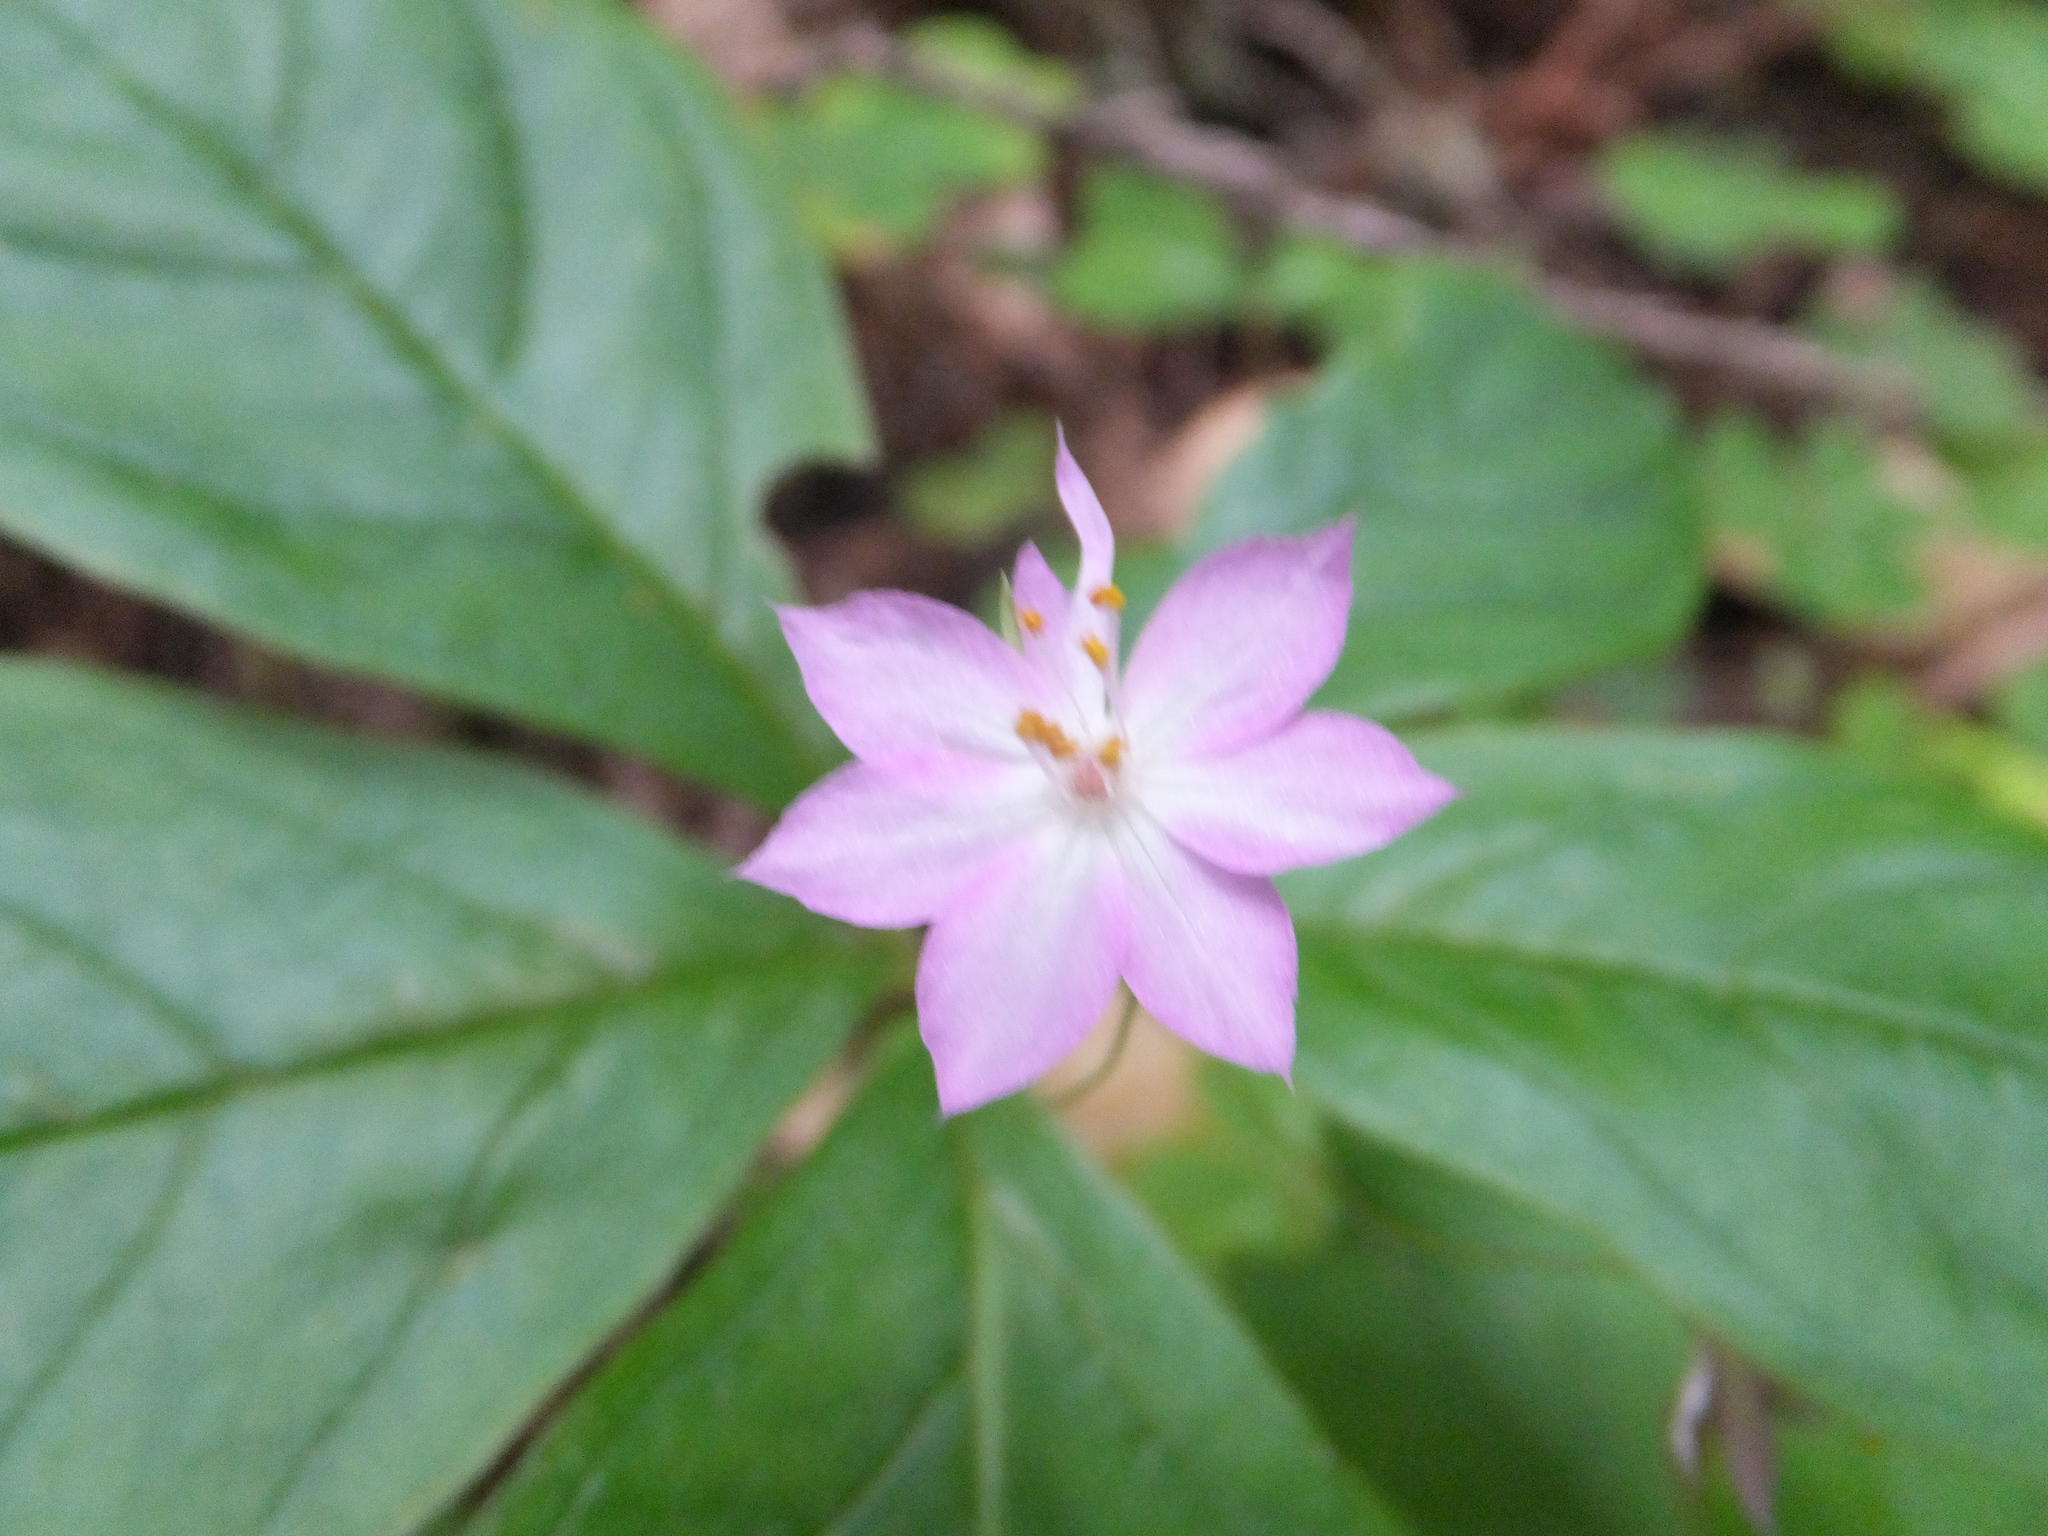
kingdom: Plantae
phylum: Tracheophyta
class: Magnoliopsida
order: Ericales
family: Primulaceae
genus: Lysimachia
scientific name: Lysimachia latifolia
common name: Pacific starflower
